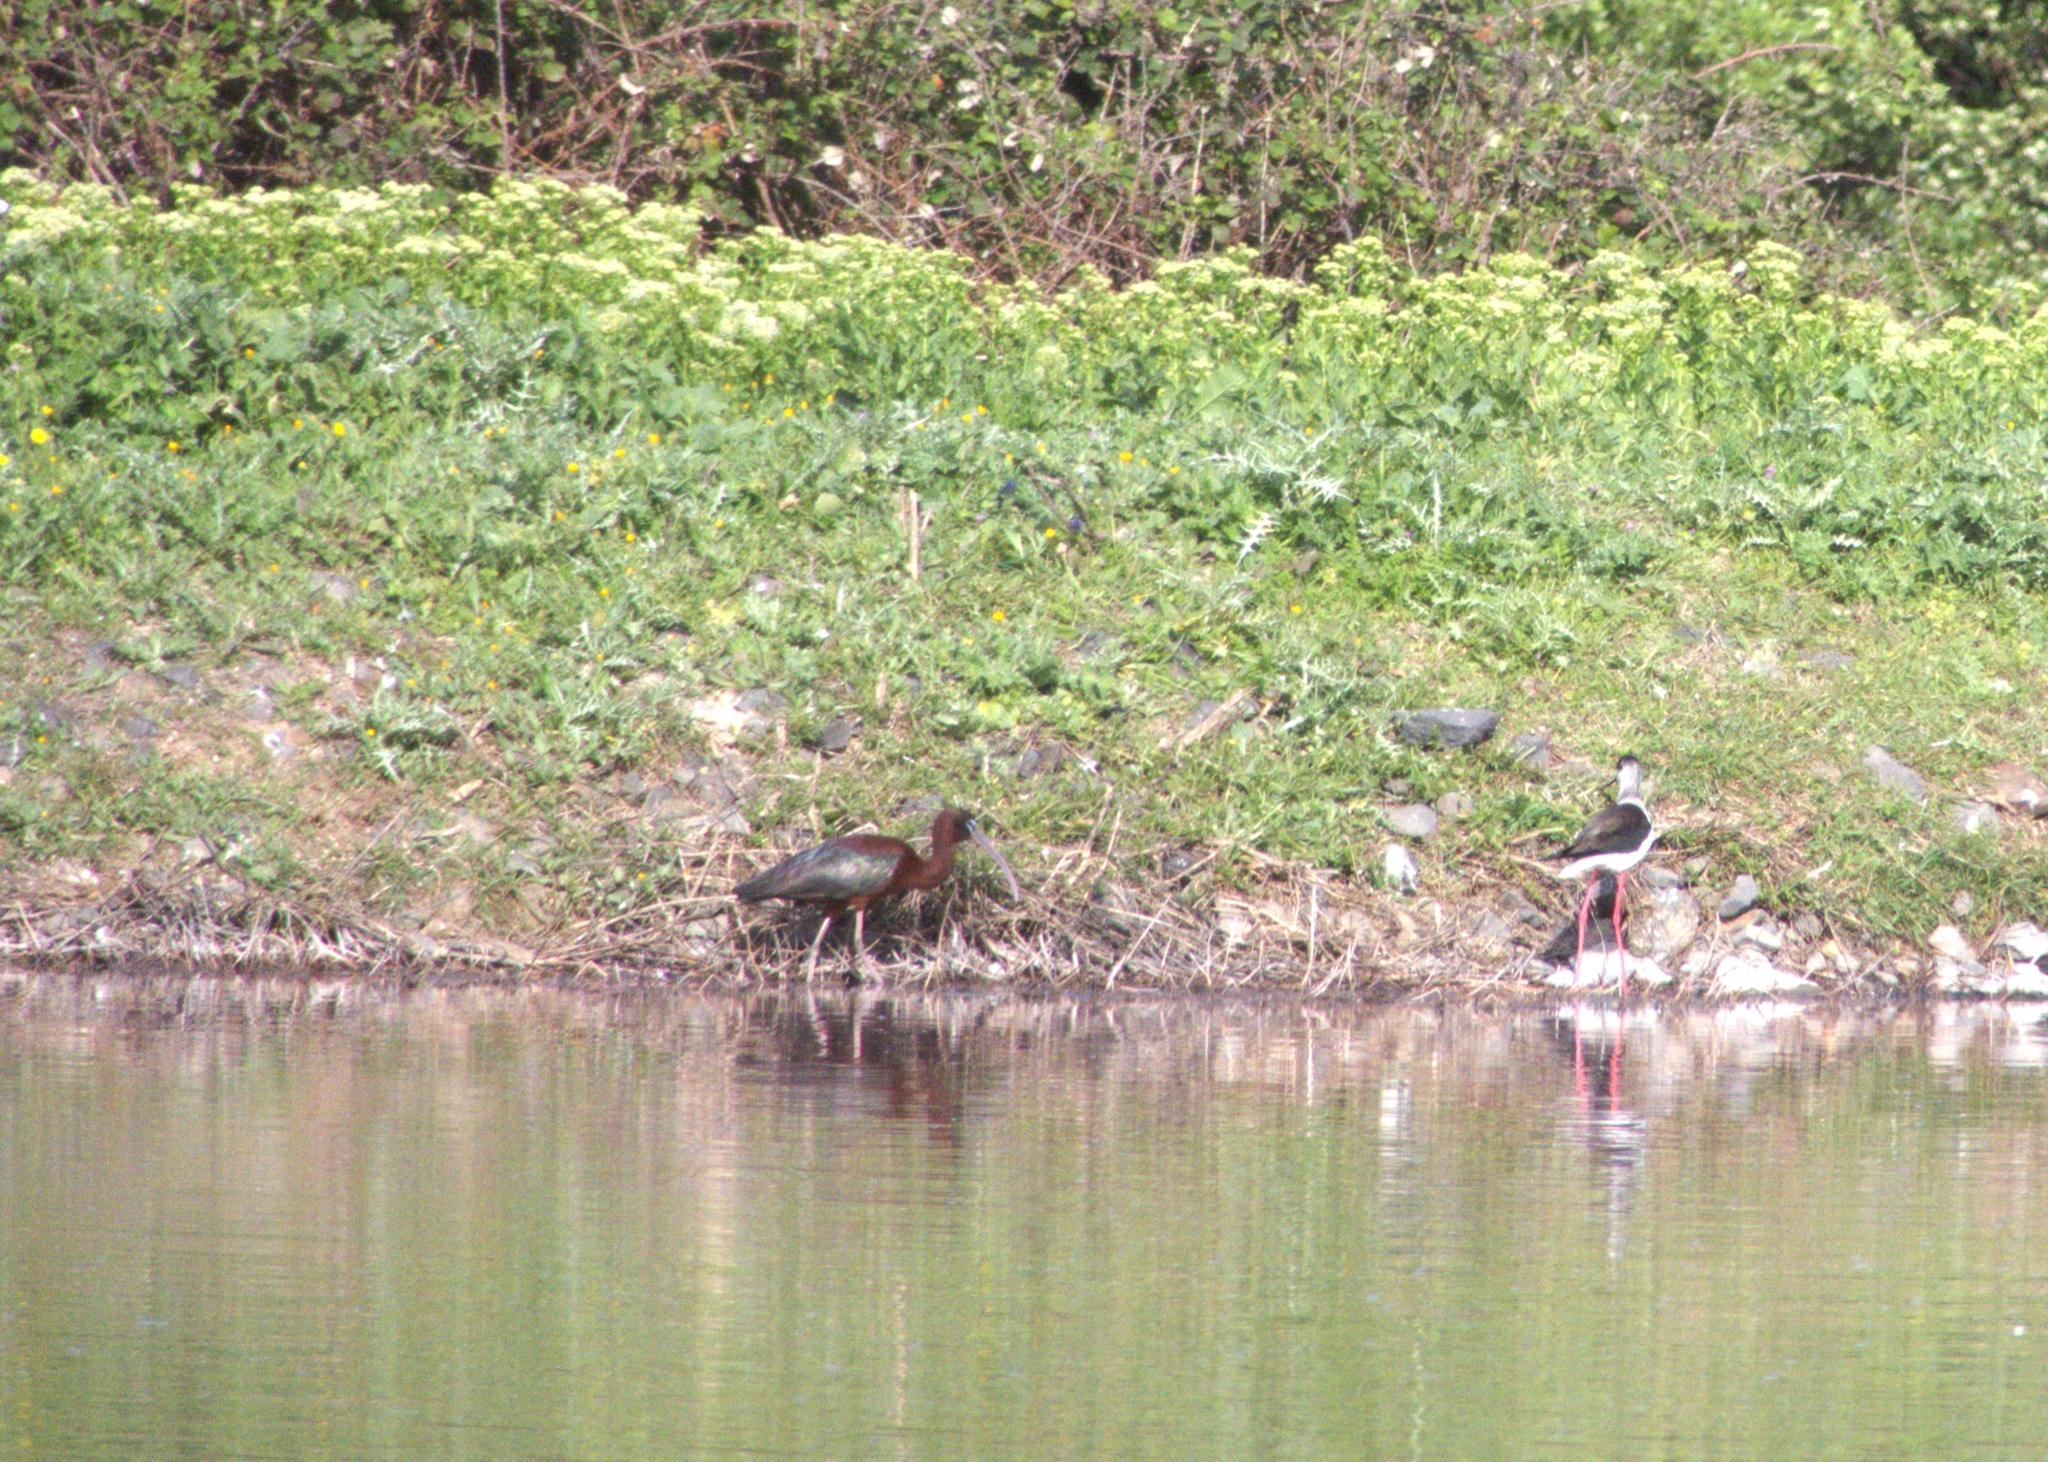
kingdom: Animalia
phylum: Chordata
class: Aves
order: Pelecaniformes
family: Threskiornithidae
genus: Plegadis
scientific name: Plegadis falcinellus
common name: Glossy ibis
